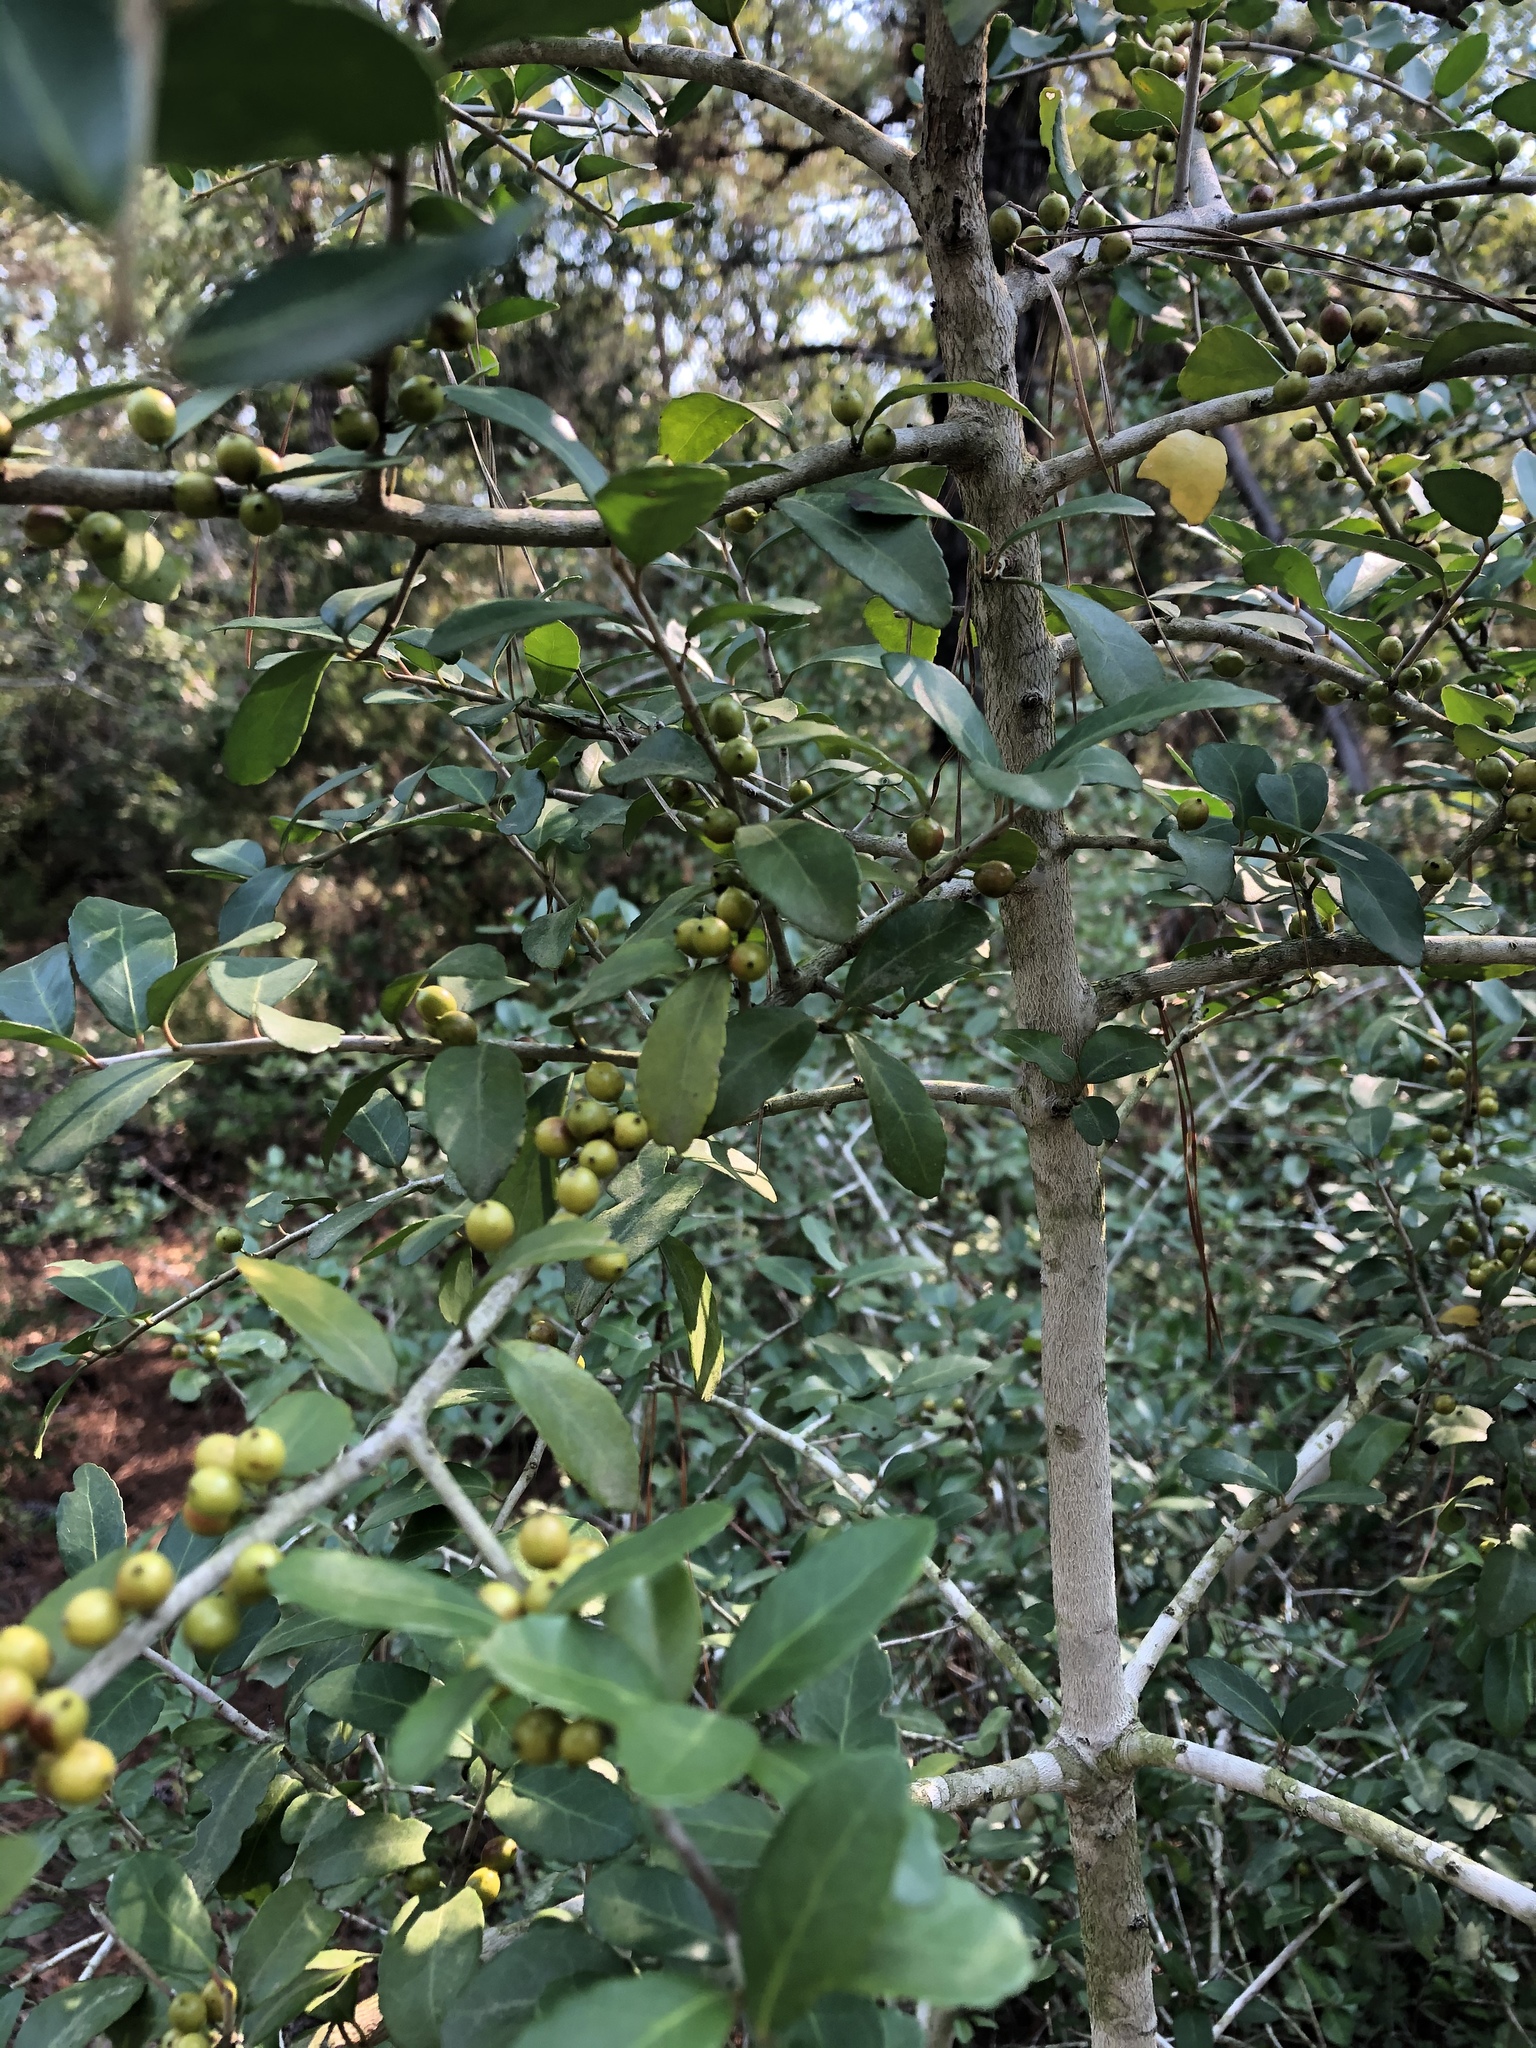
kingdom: Plantae
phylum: Tracheophyta
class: Magnoliopsida
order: Aquifoliales
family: Aquifoliaceae
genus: Ilex
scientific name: Ilex vomitoria
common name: Yaupon holly
